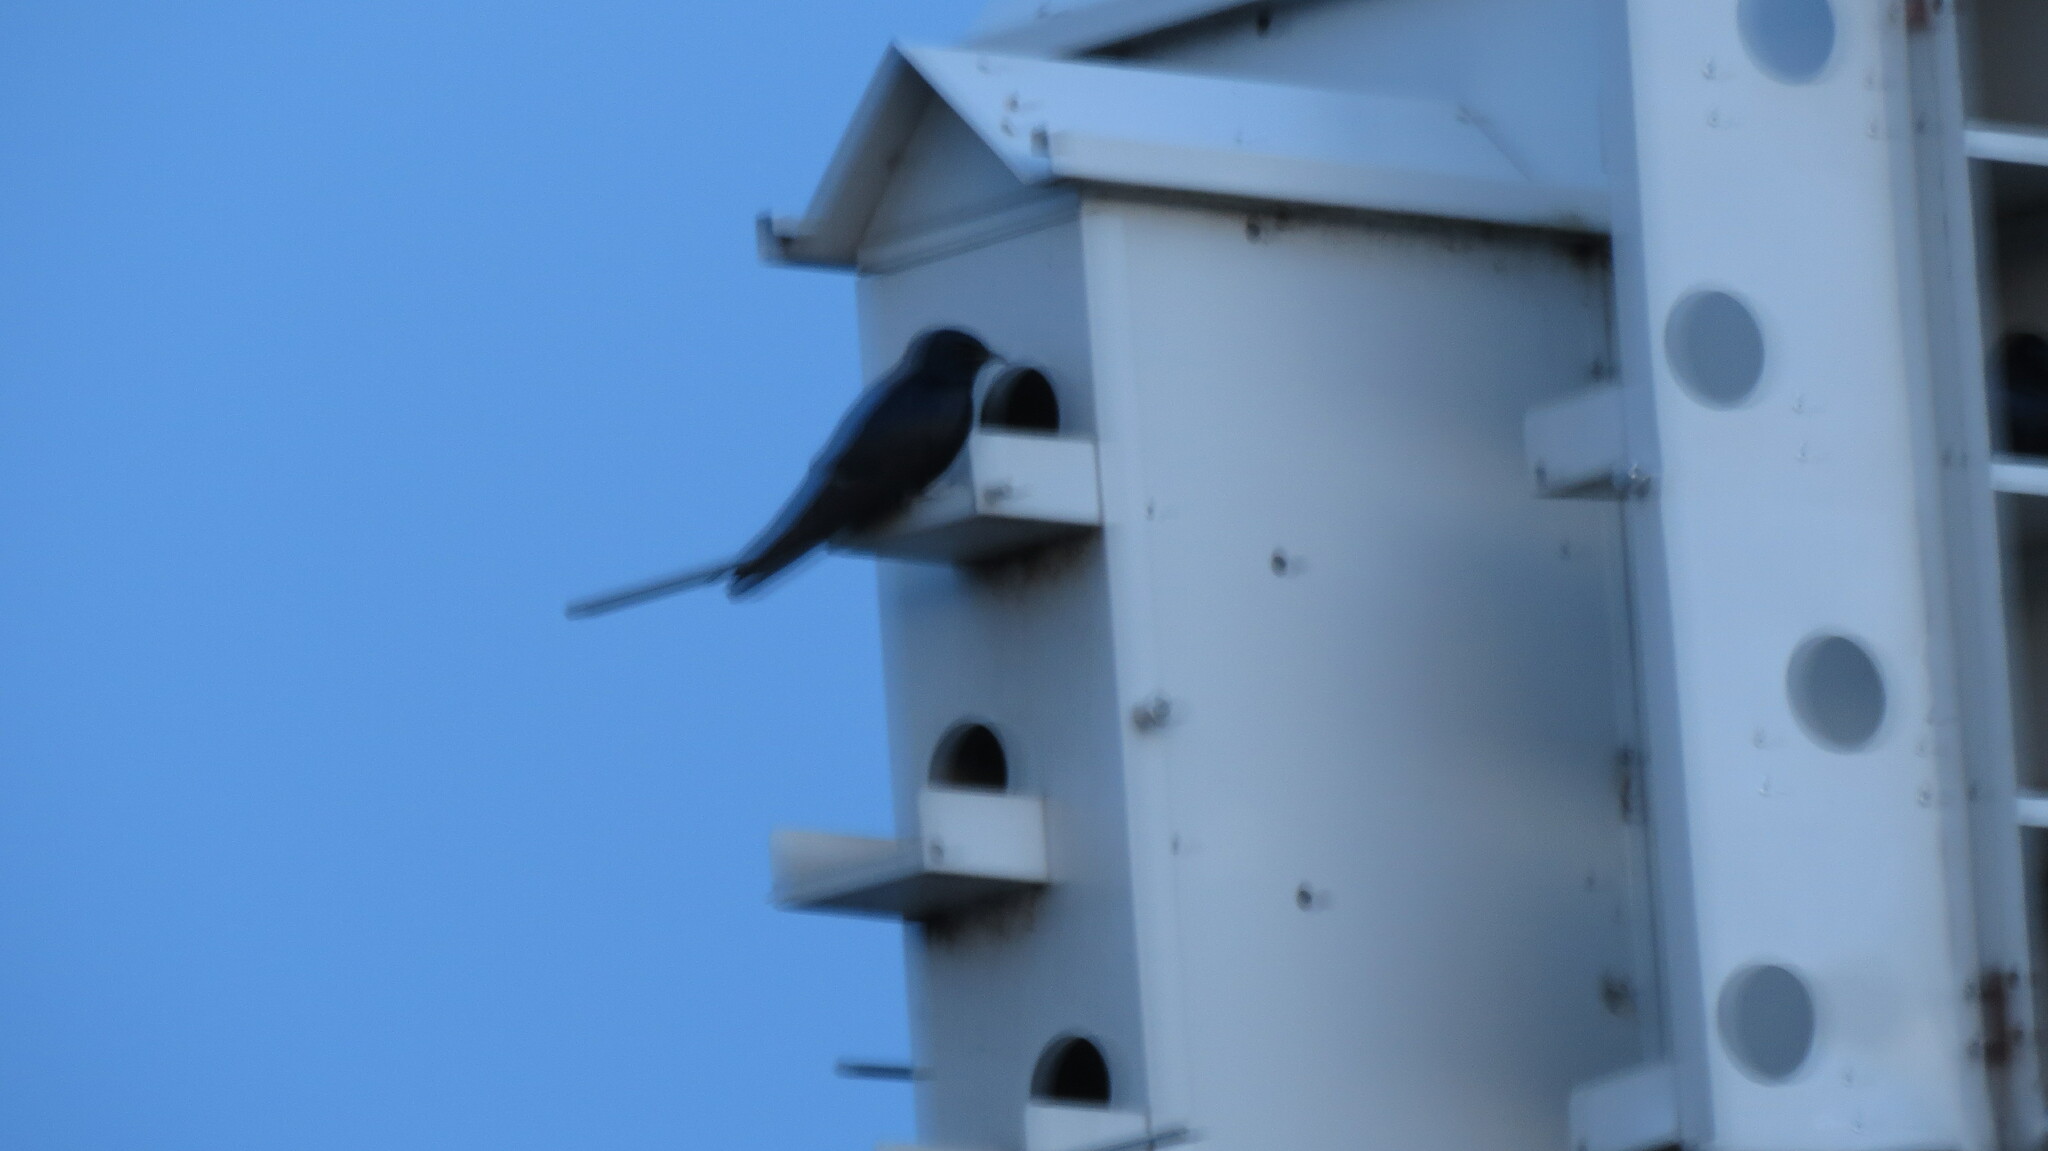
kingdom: Animalia
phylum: Chordata
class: Aves
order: Passeriformes
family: Hirundinidae
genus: Progne
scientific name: Progne subis
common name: Purple martin
